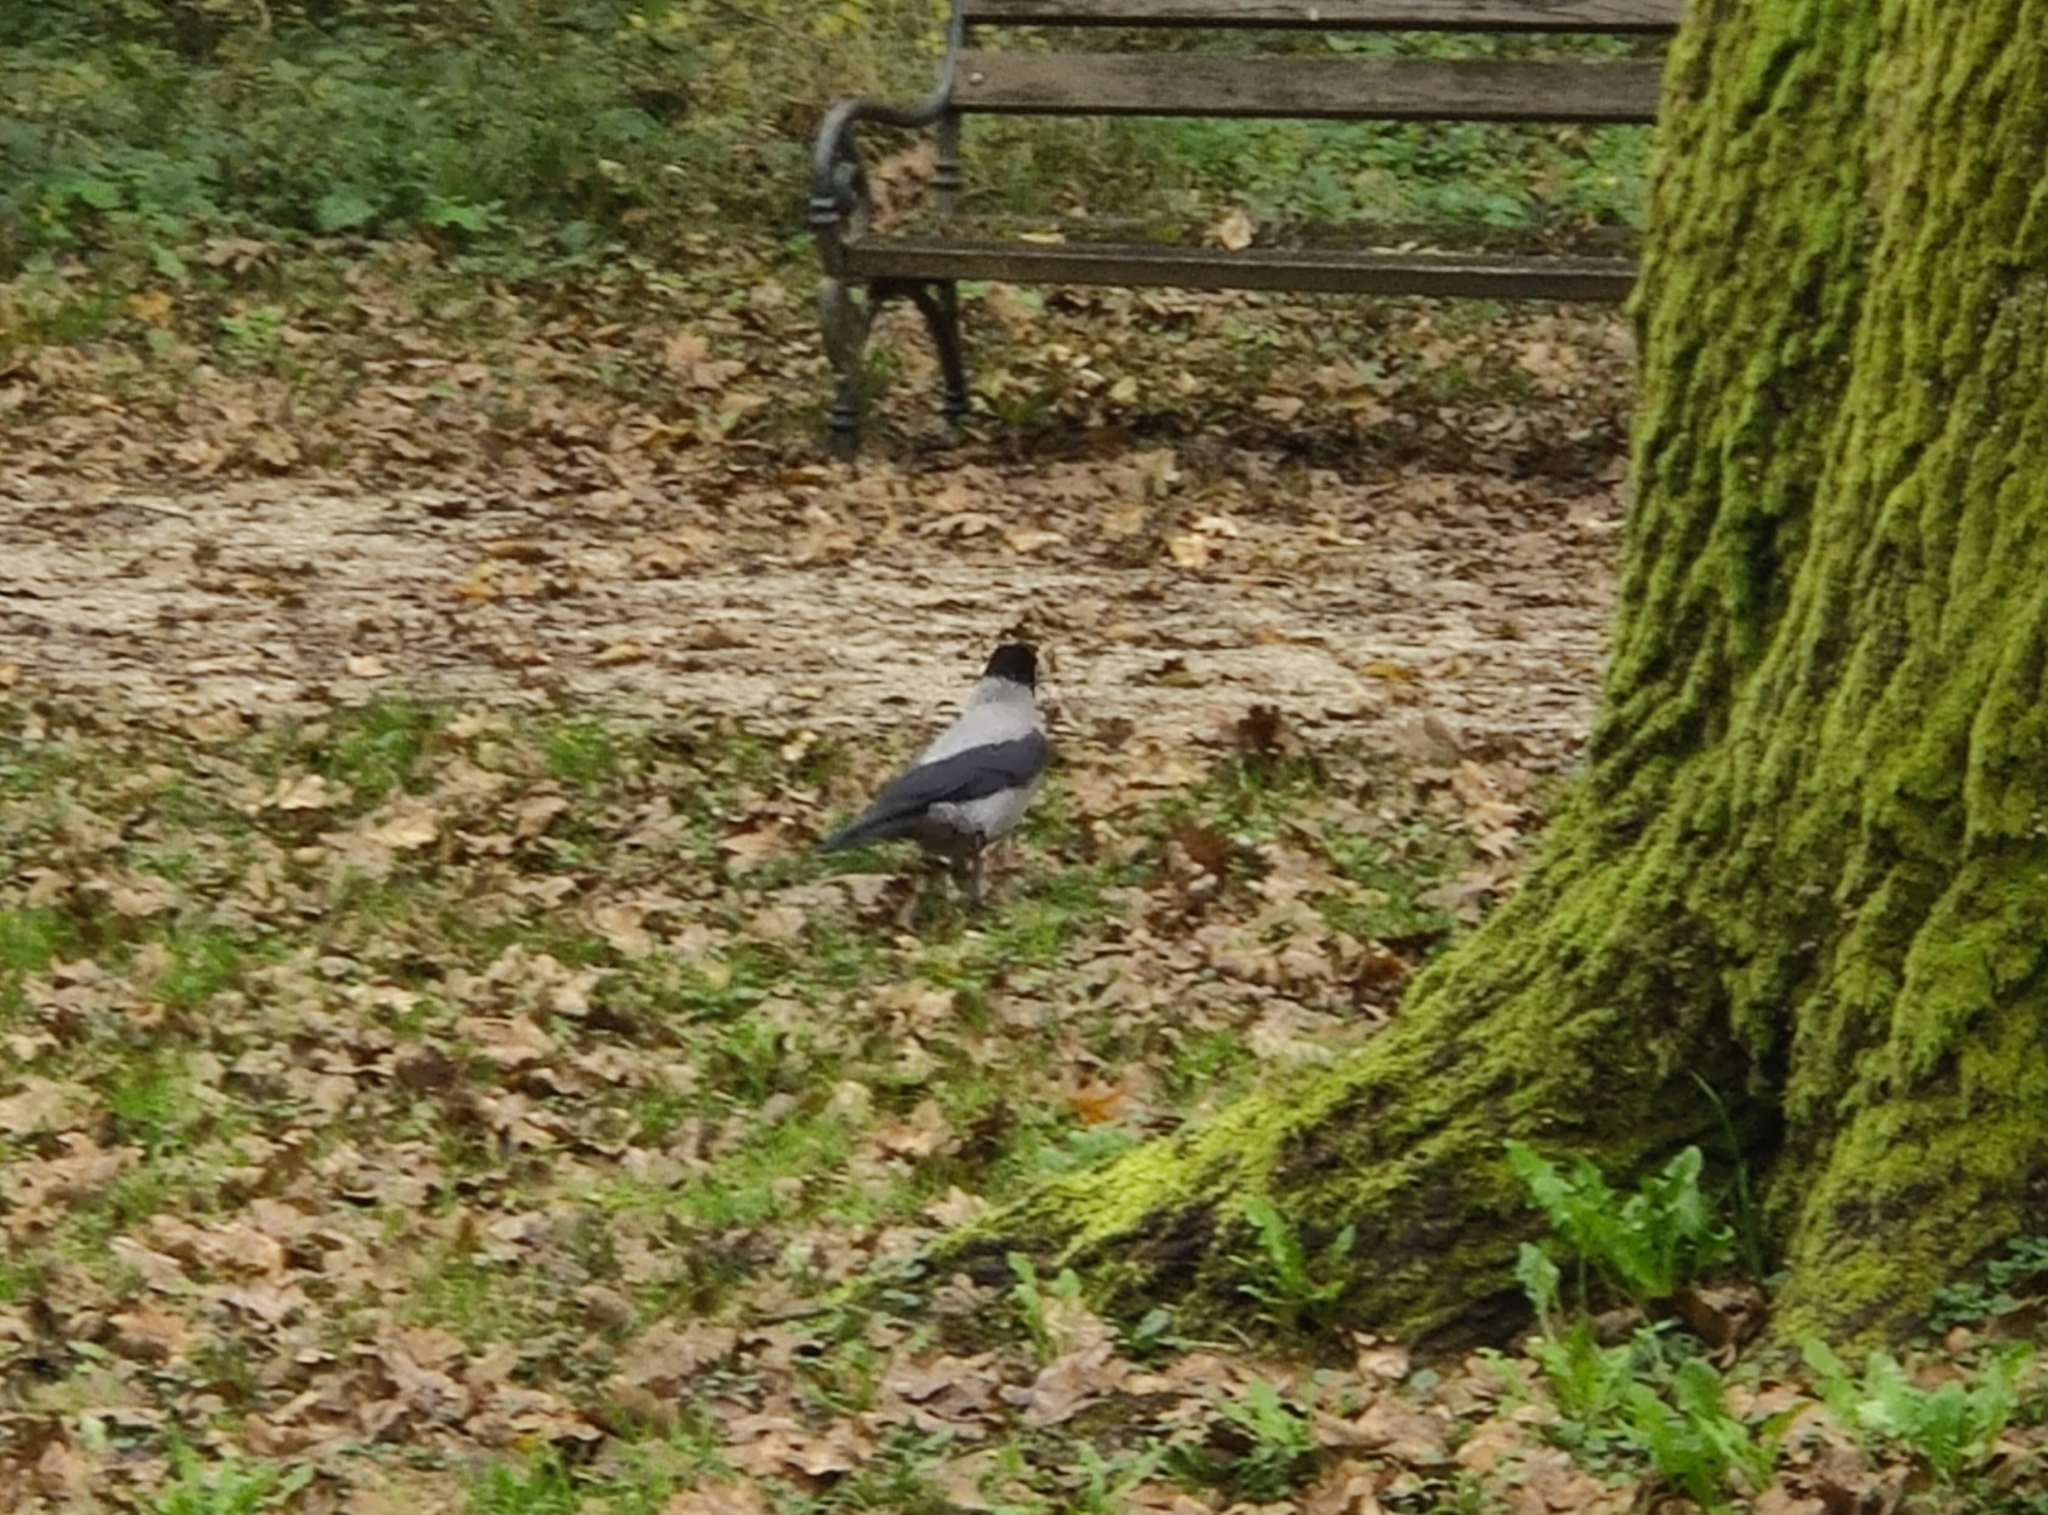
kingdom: Animalia
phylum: Chordata
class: Aves
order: Passeriformes
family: Corvidae
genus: Corvus
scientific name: Corvus cornix
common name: Hooded crow
